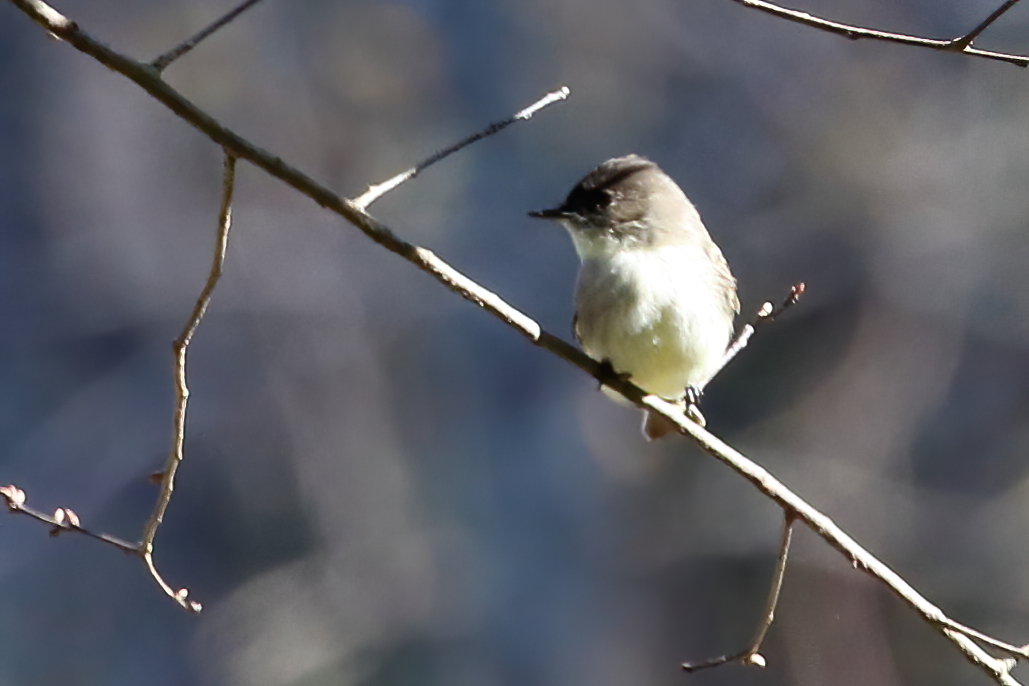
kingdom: Animalia
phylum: Chordata
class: Aves
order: Passeriformes
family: Tyrannidae
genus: Sayornis
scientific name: Sayornis phoebe
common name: Eastern phoebe
